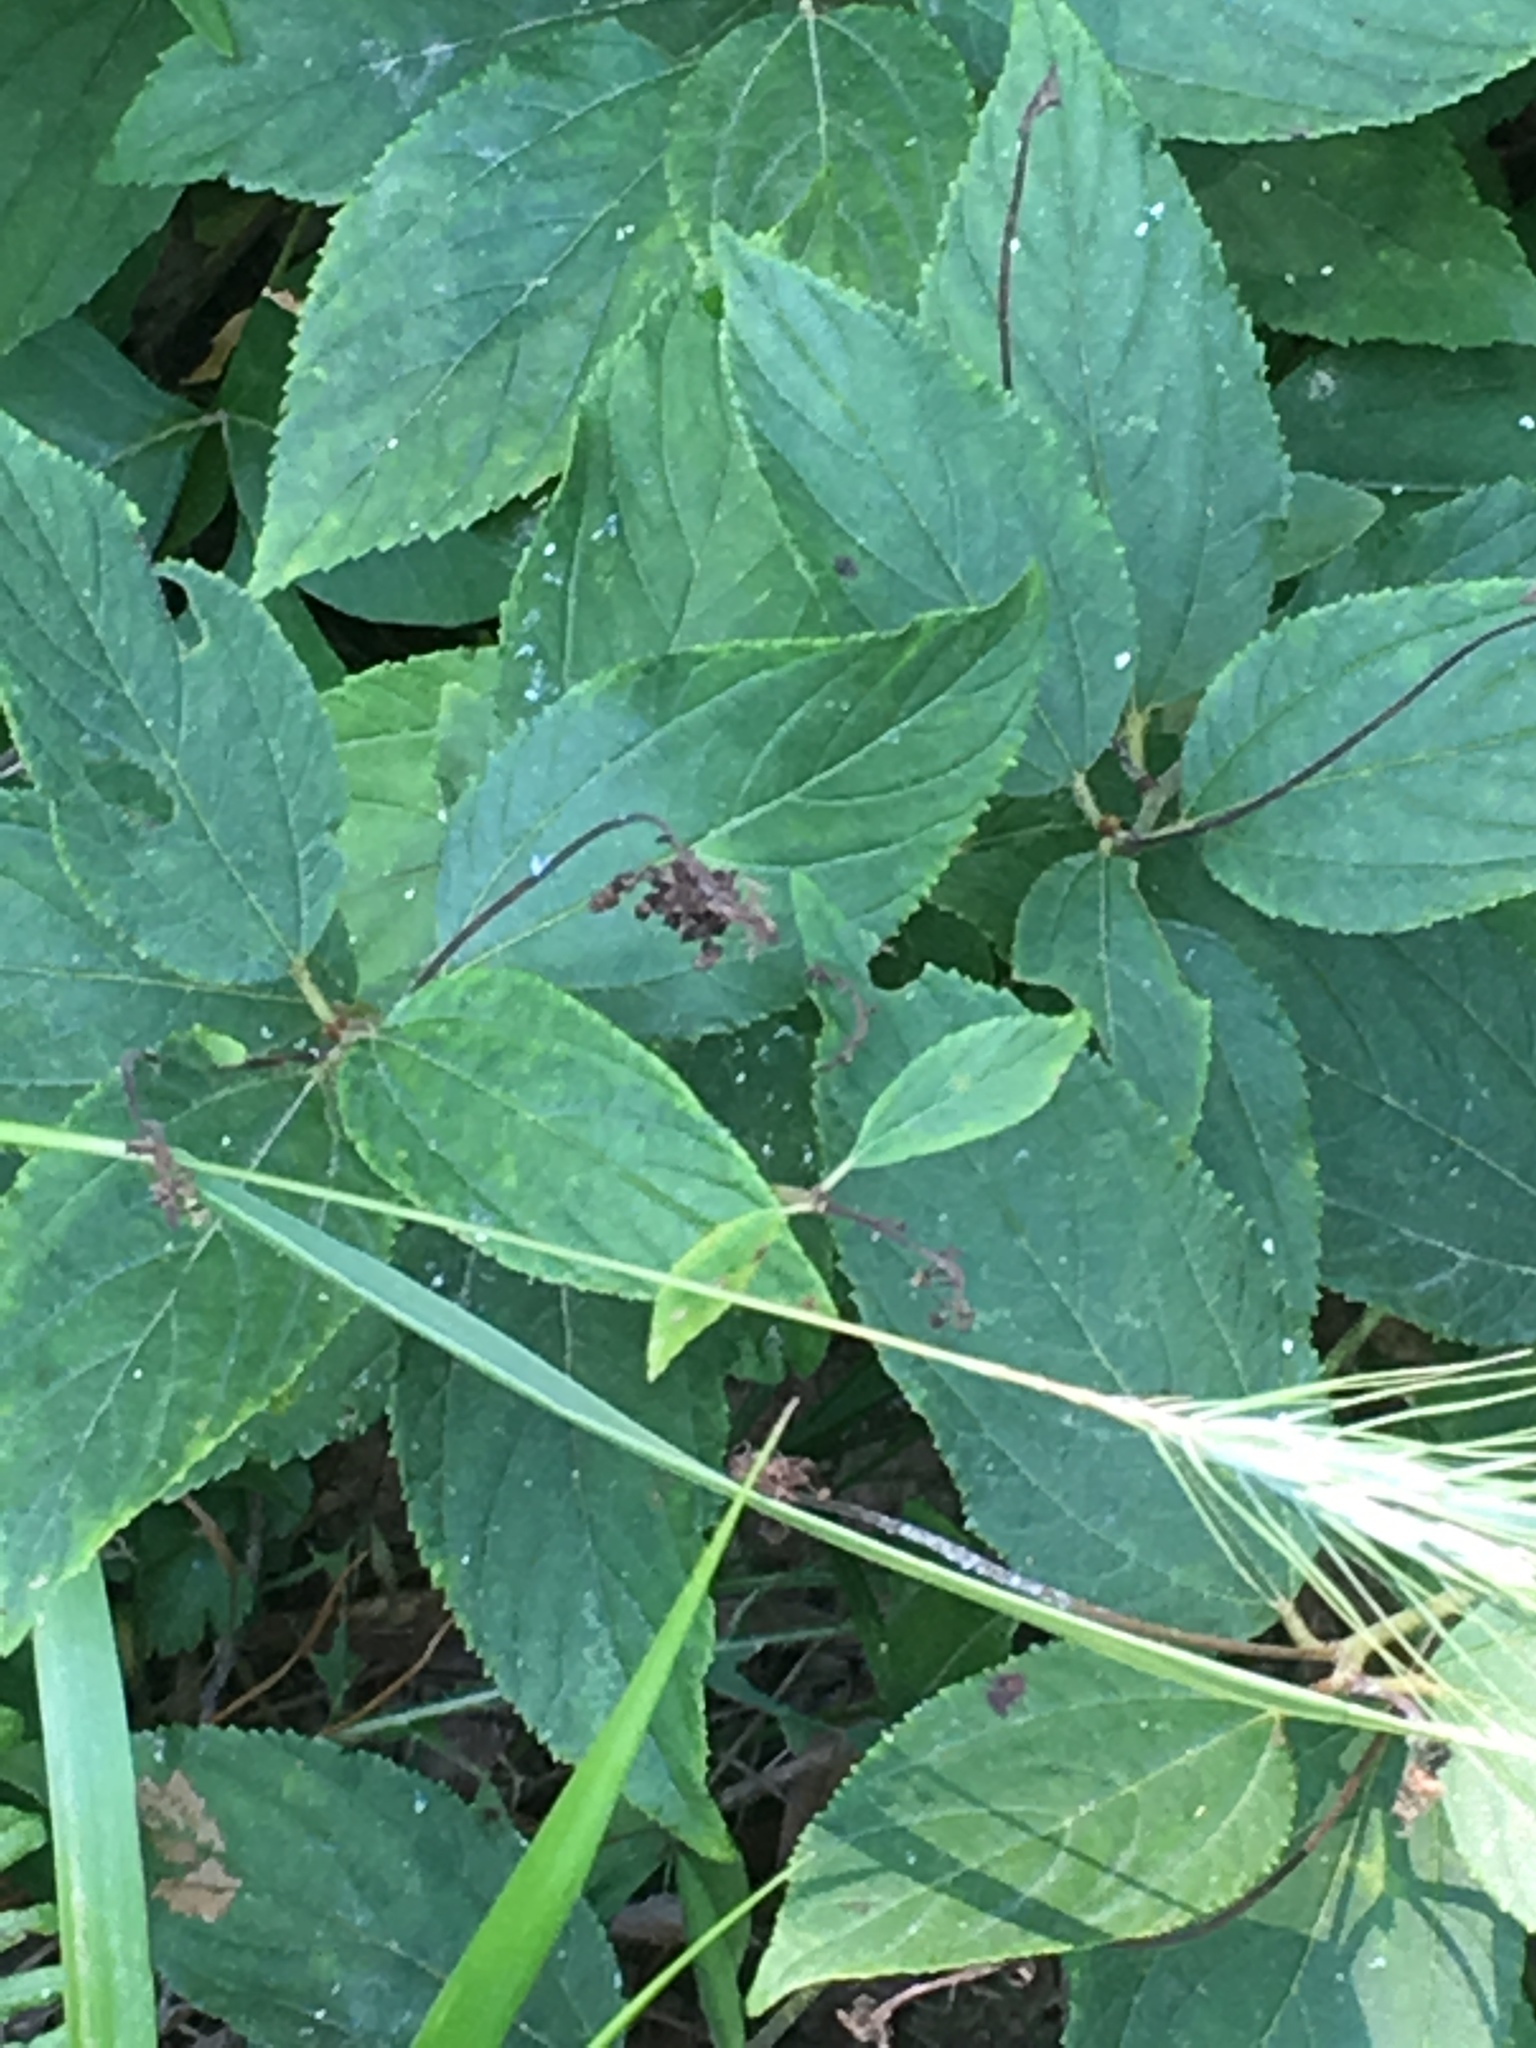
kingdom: Plantae
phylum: Tracheophyta
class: Magnoliopsida
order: Rosales
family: Rhamnaceae
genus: Ceanothus
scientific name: Ceanothus americanus
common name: Redroot
